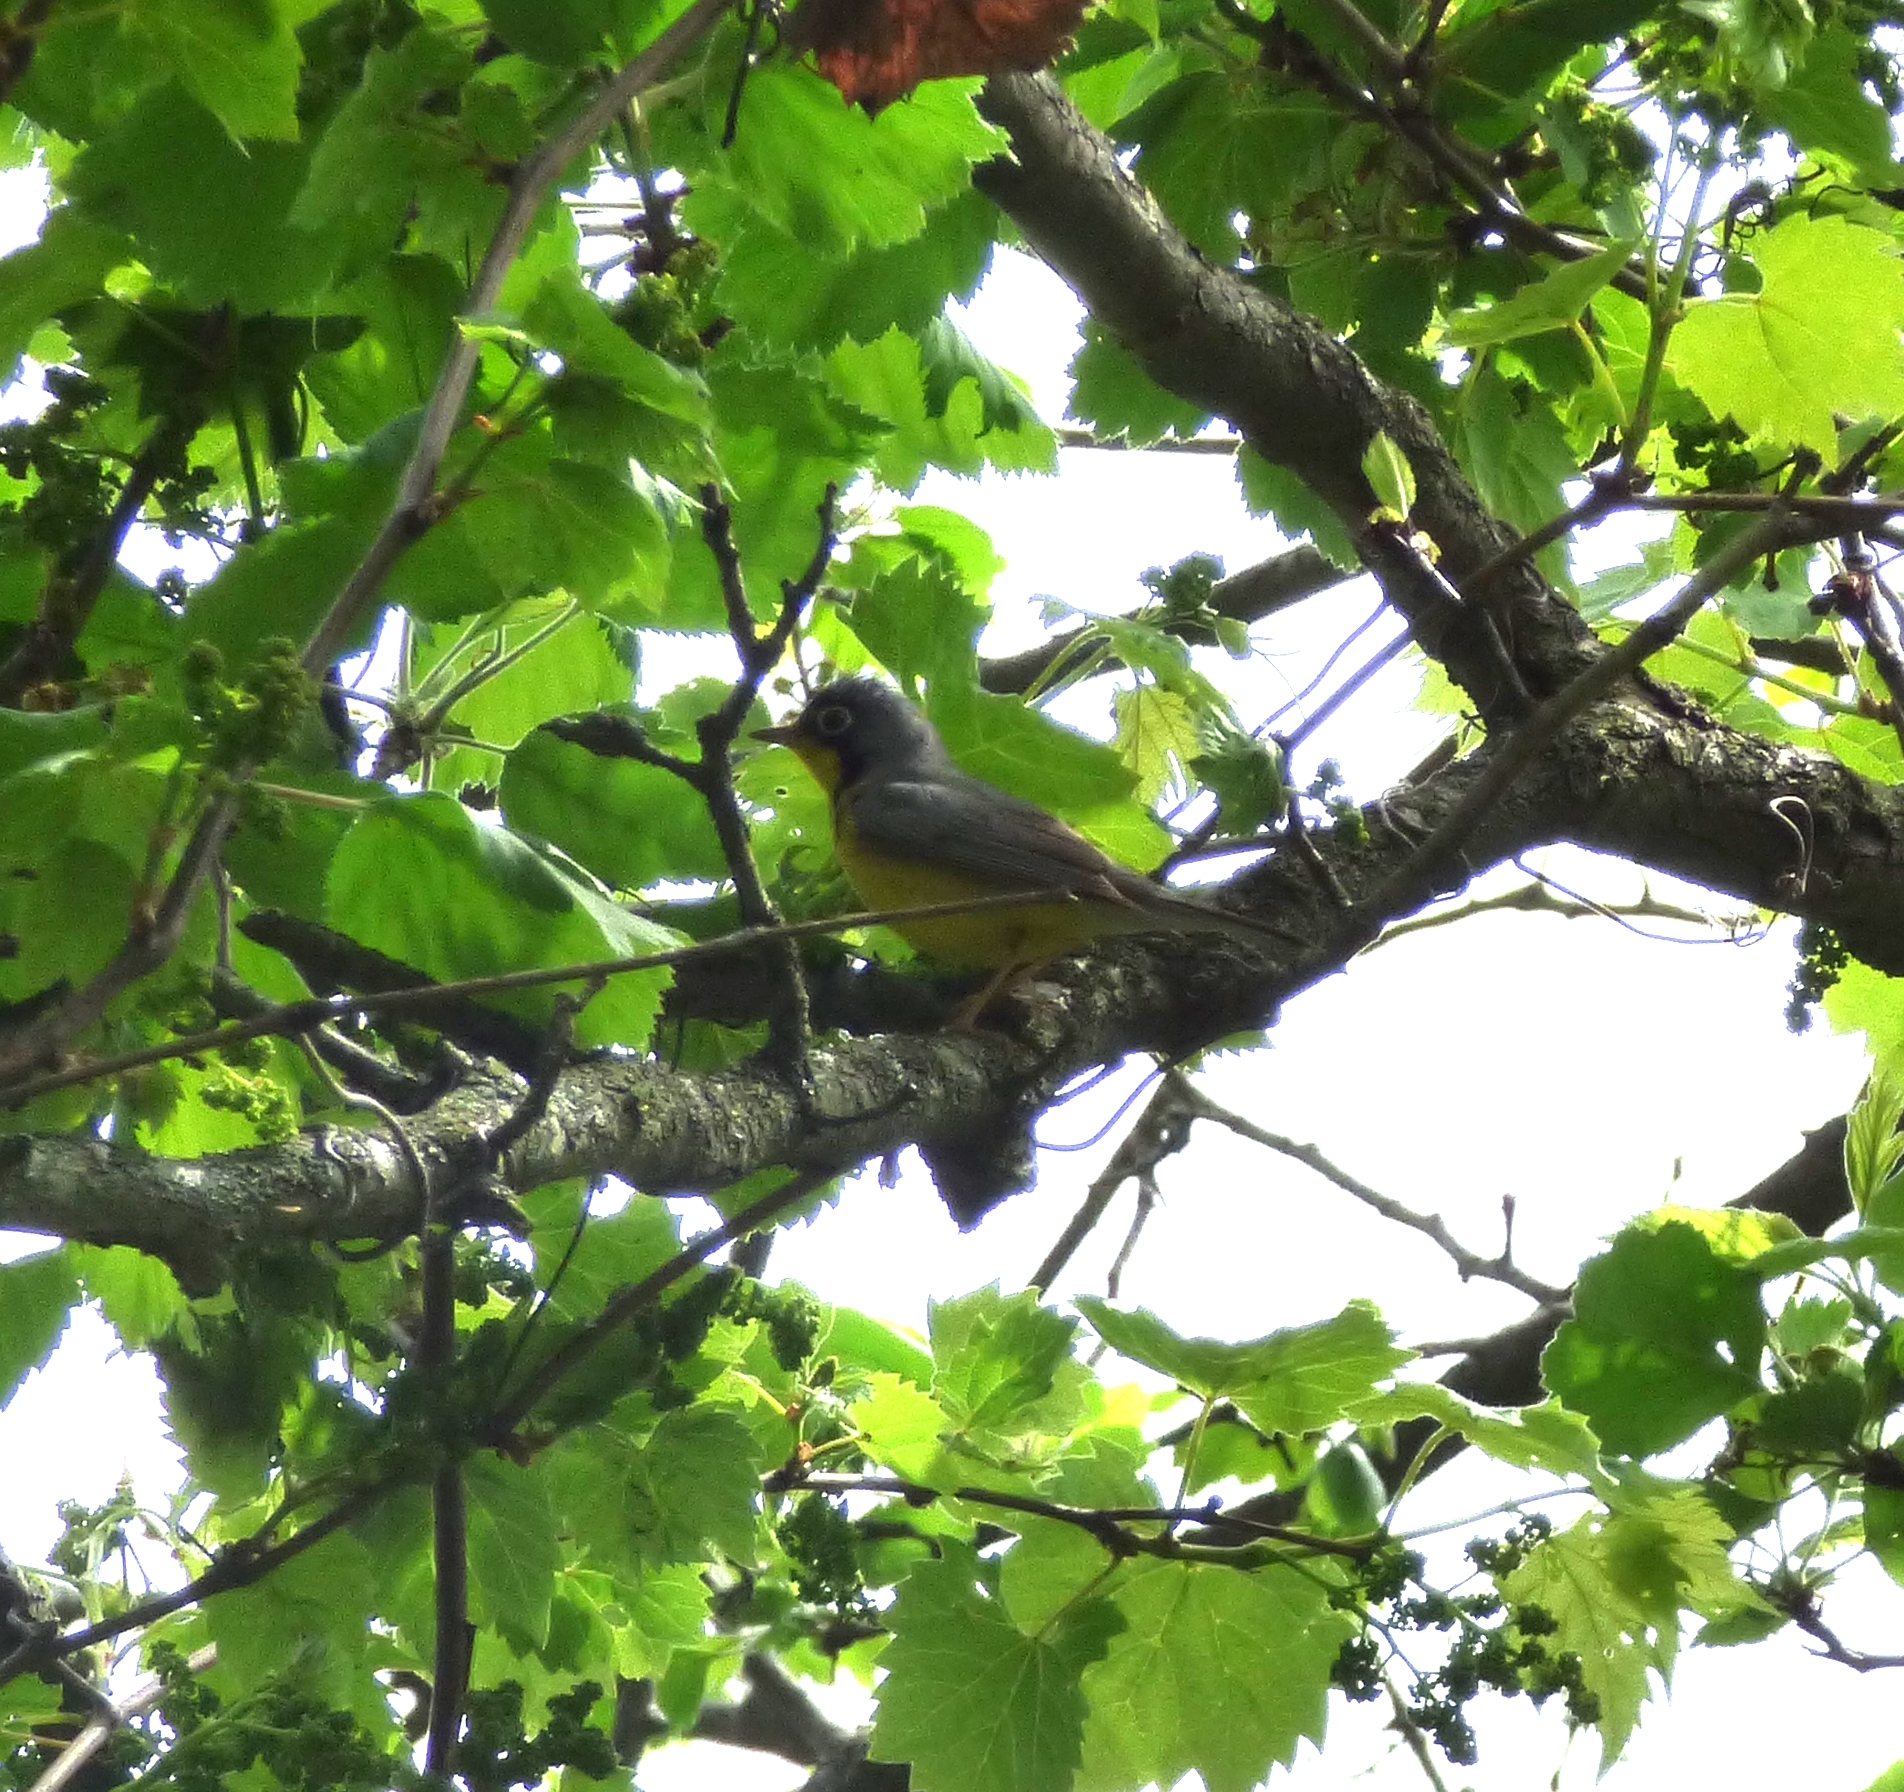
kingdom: Animalia
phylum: Chordata
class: Aves
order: Passeriformes
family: Parulidae
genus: Cardellina
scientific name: Cardellina canadensis
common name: Canada warbler
